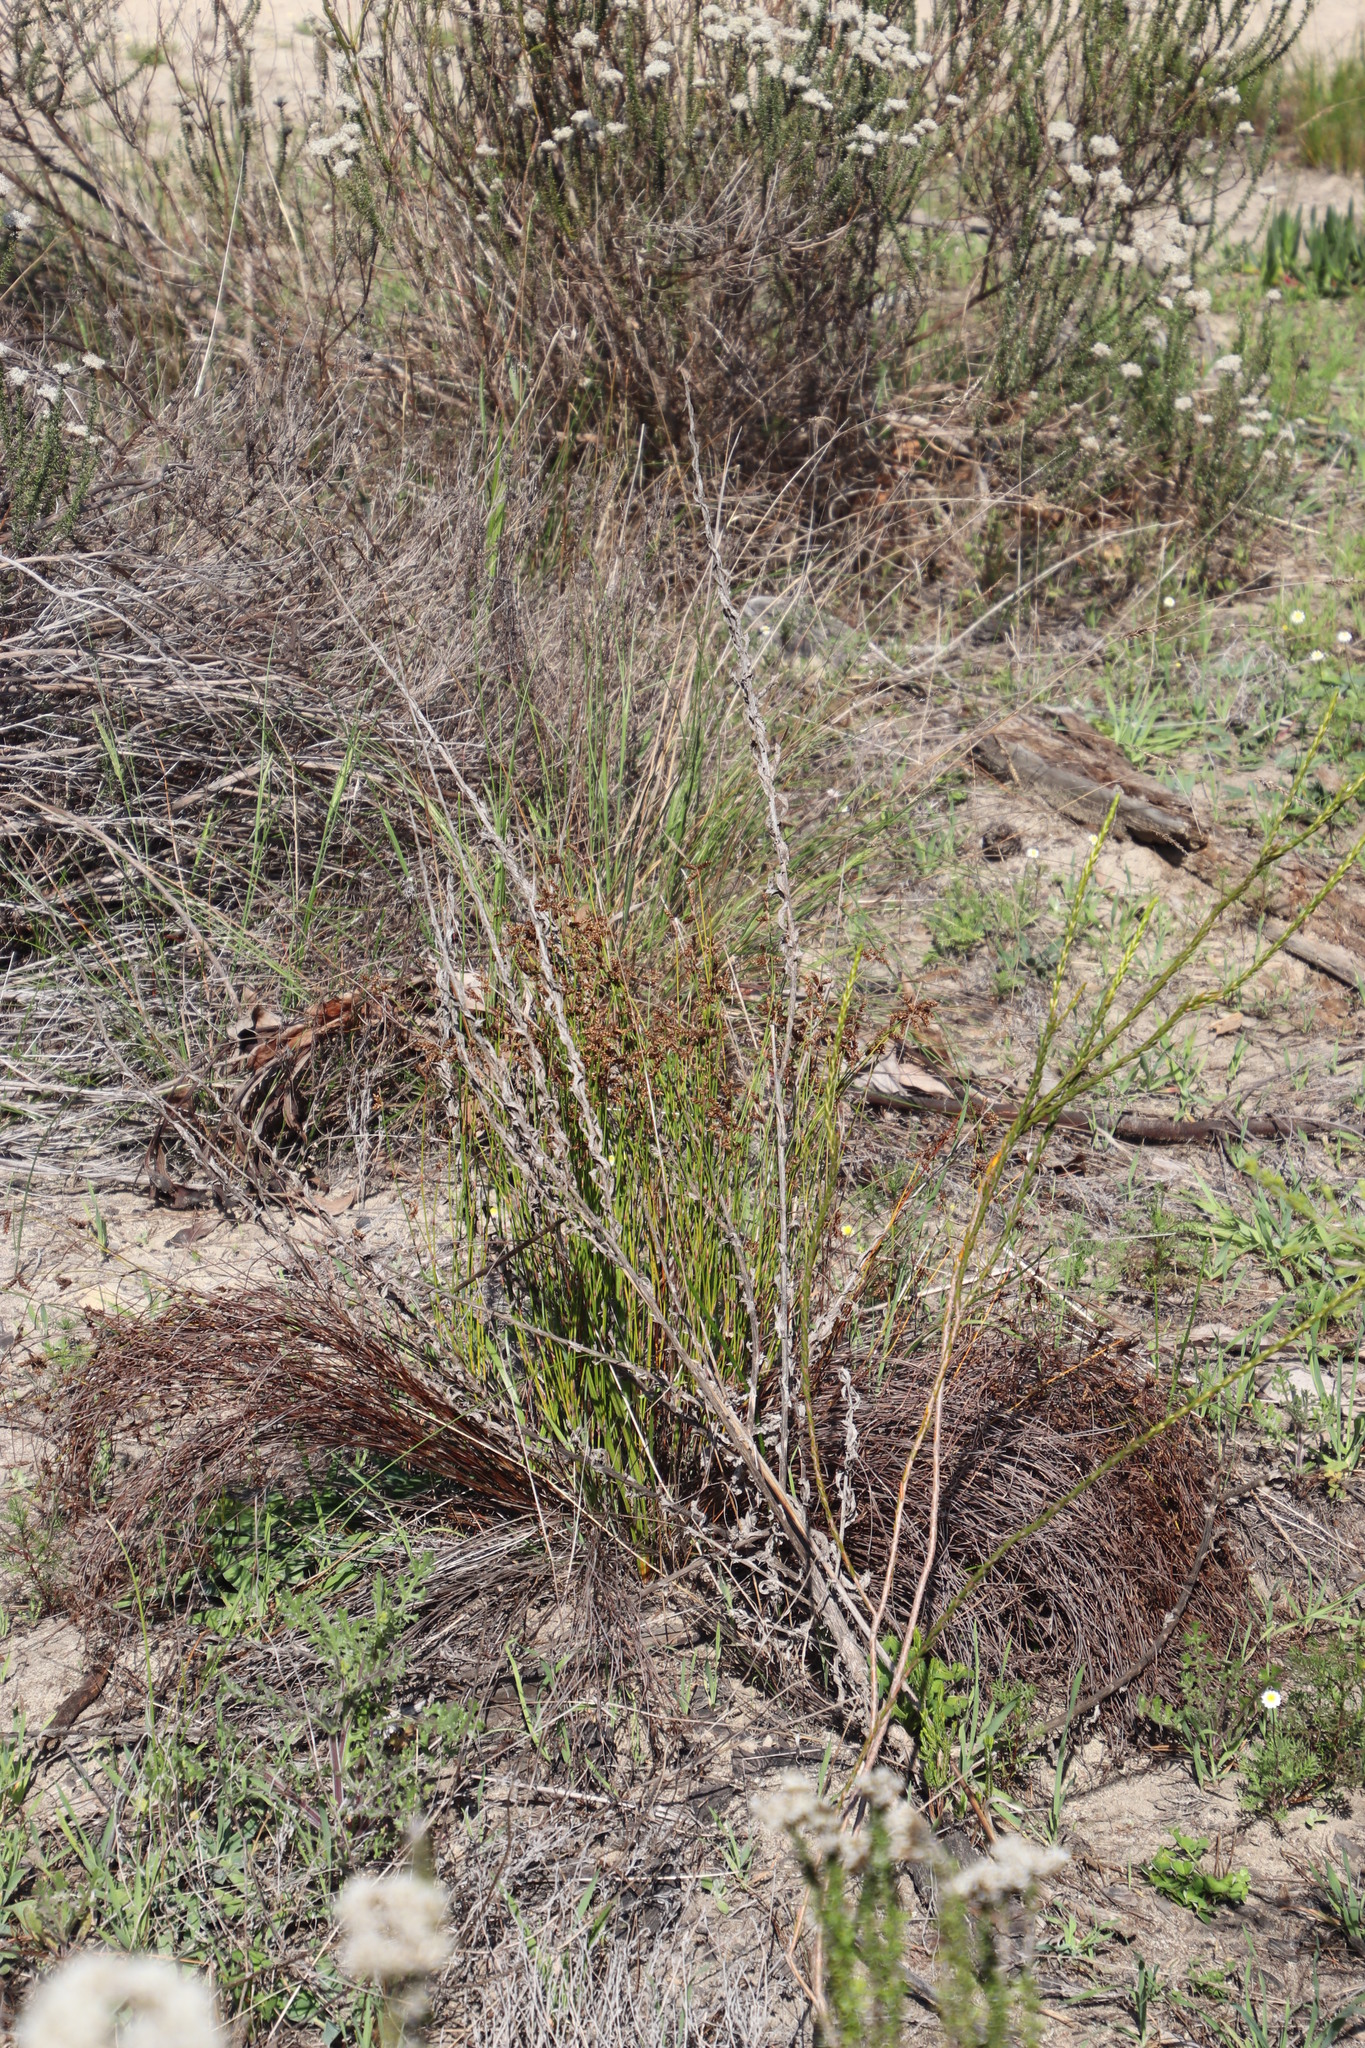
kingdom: Plantae
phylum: Tracheophyta
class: Liliopsida
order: Poales
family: Restionaceae
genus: Mastersiella
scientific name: Mastersiella digitata
